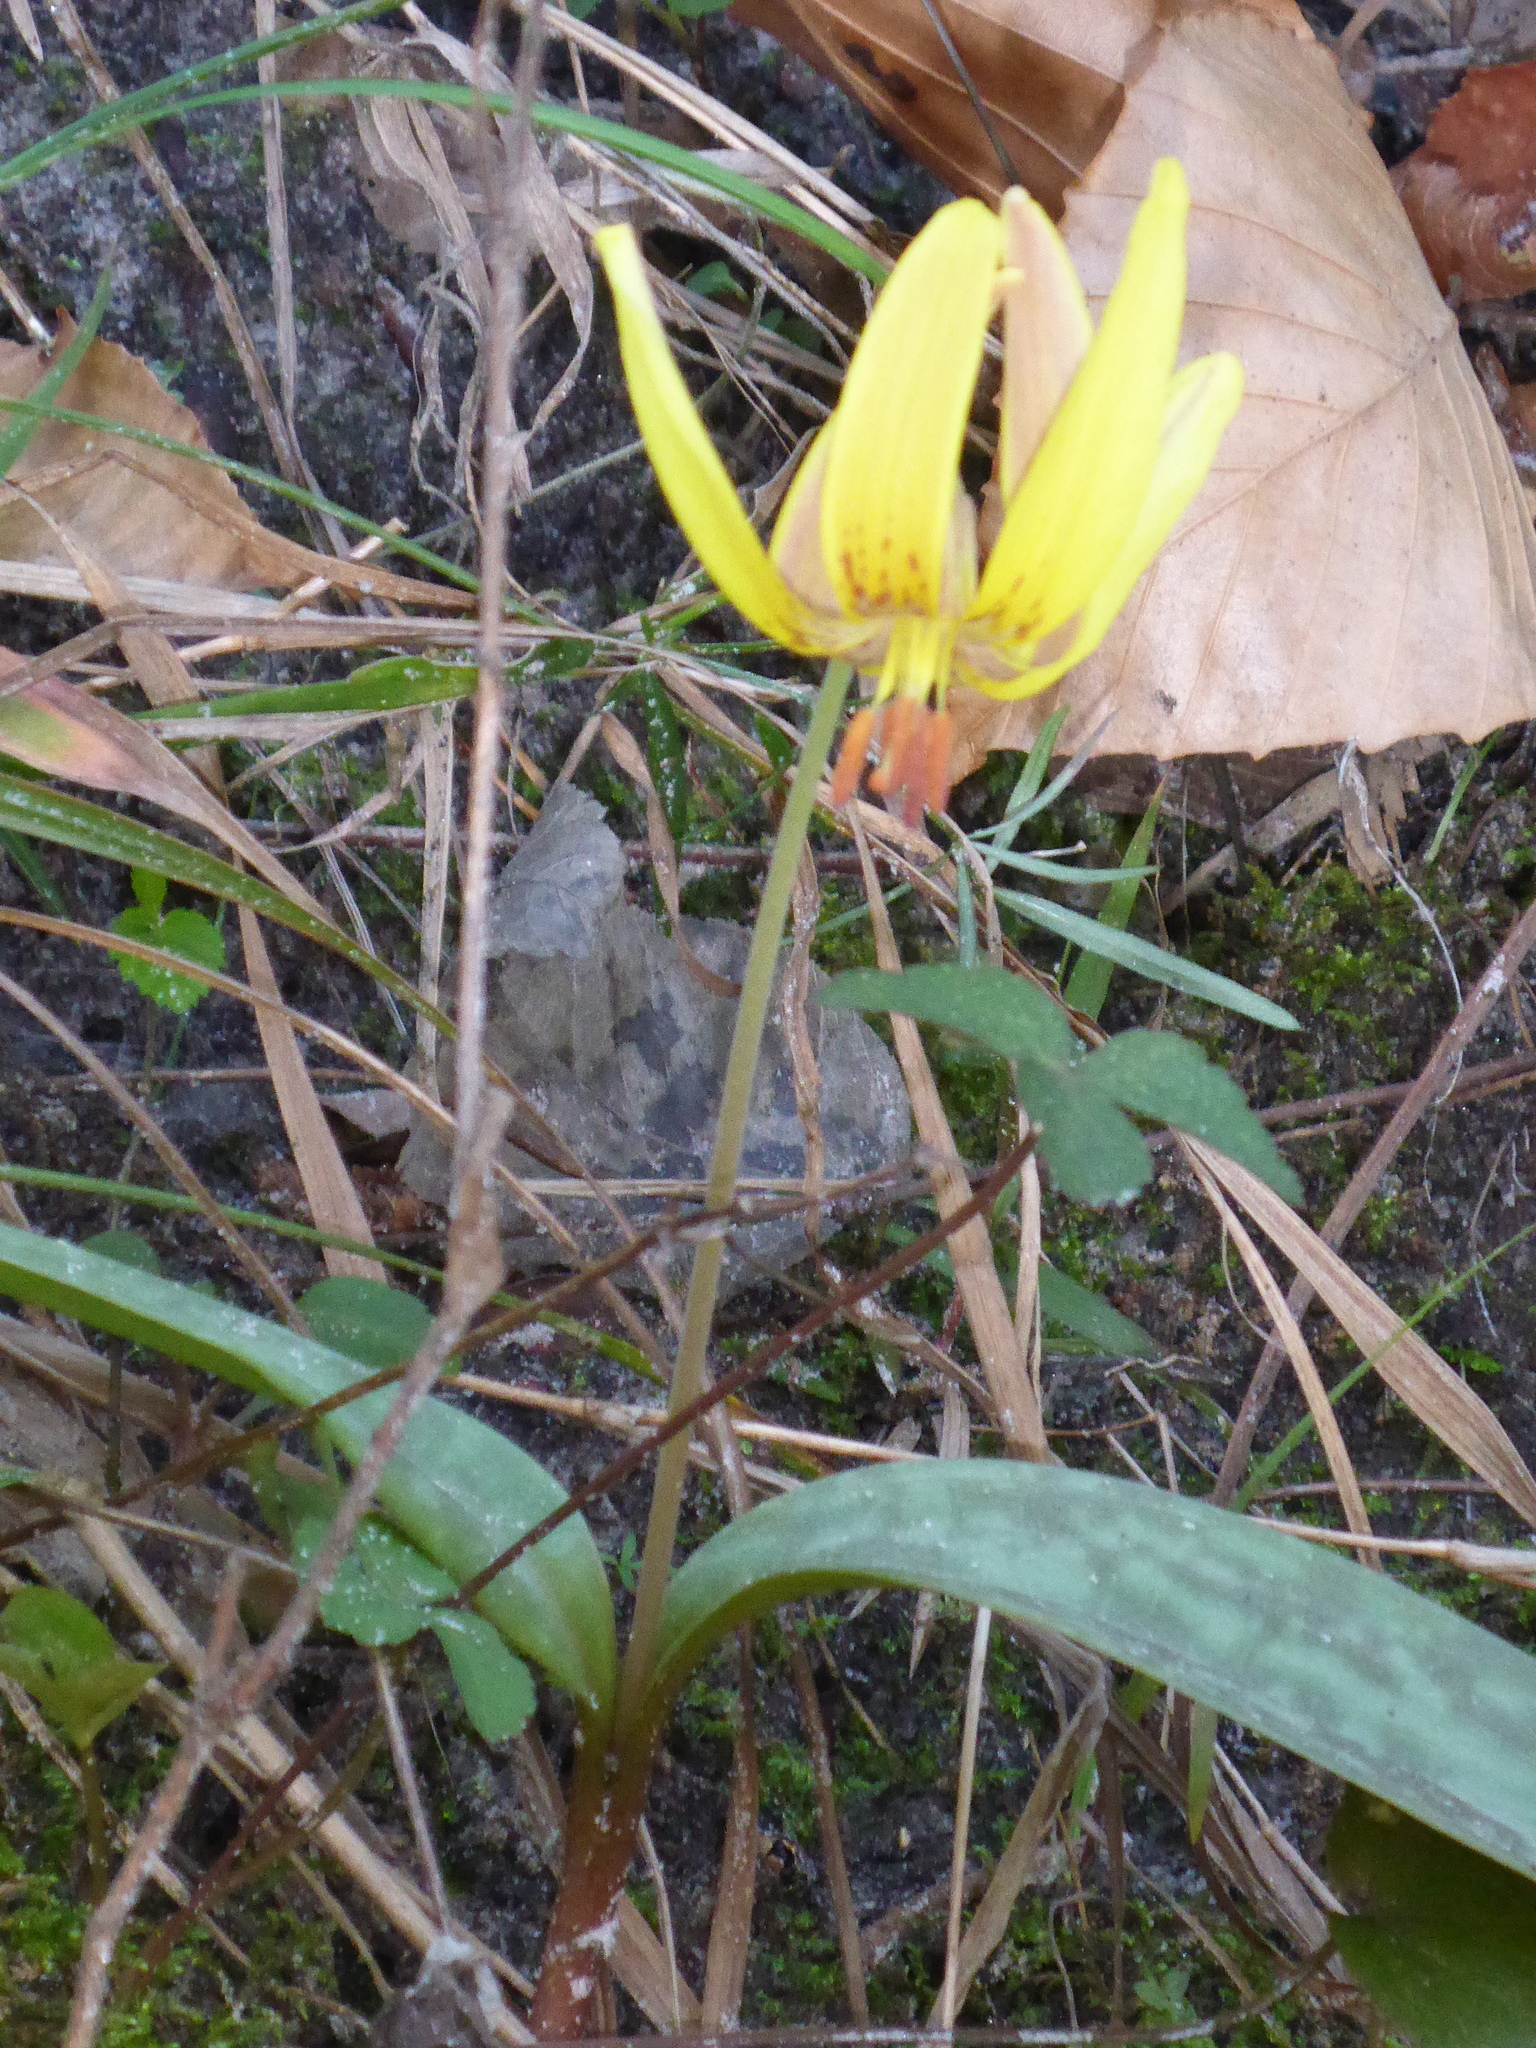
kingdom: Plantae
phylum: Tracheophyta
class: Liliopsida
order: Liliales
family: Liliaceae
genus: Erythronium
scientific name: Erythronium umbilicatum
